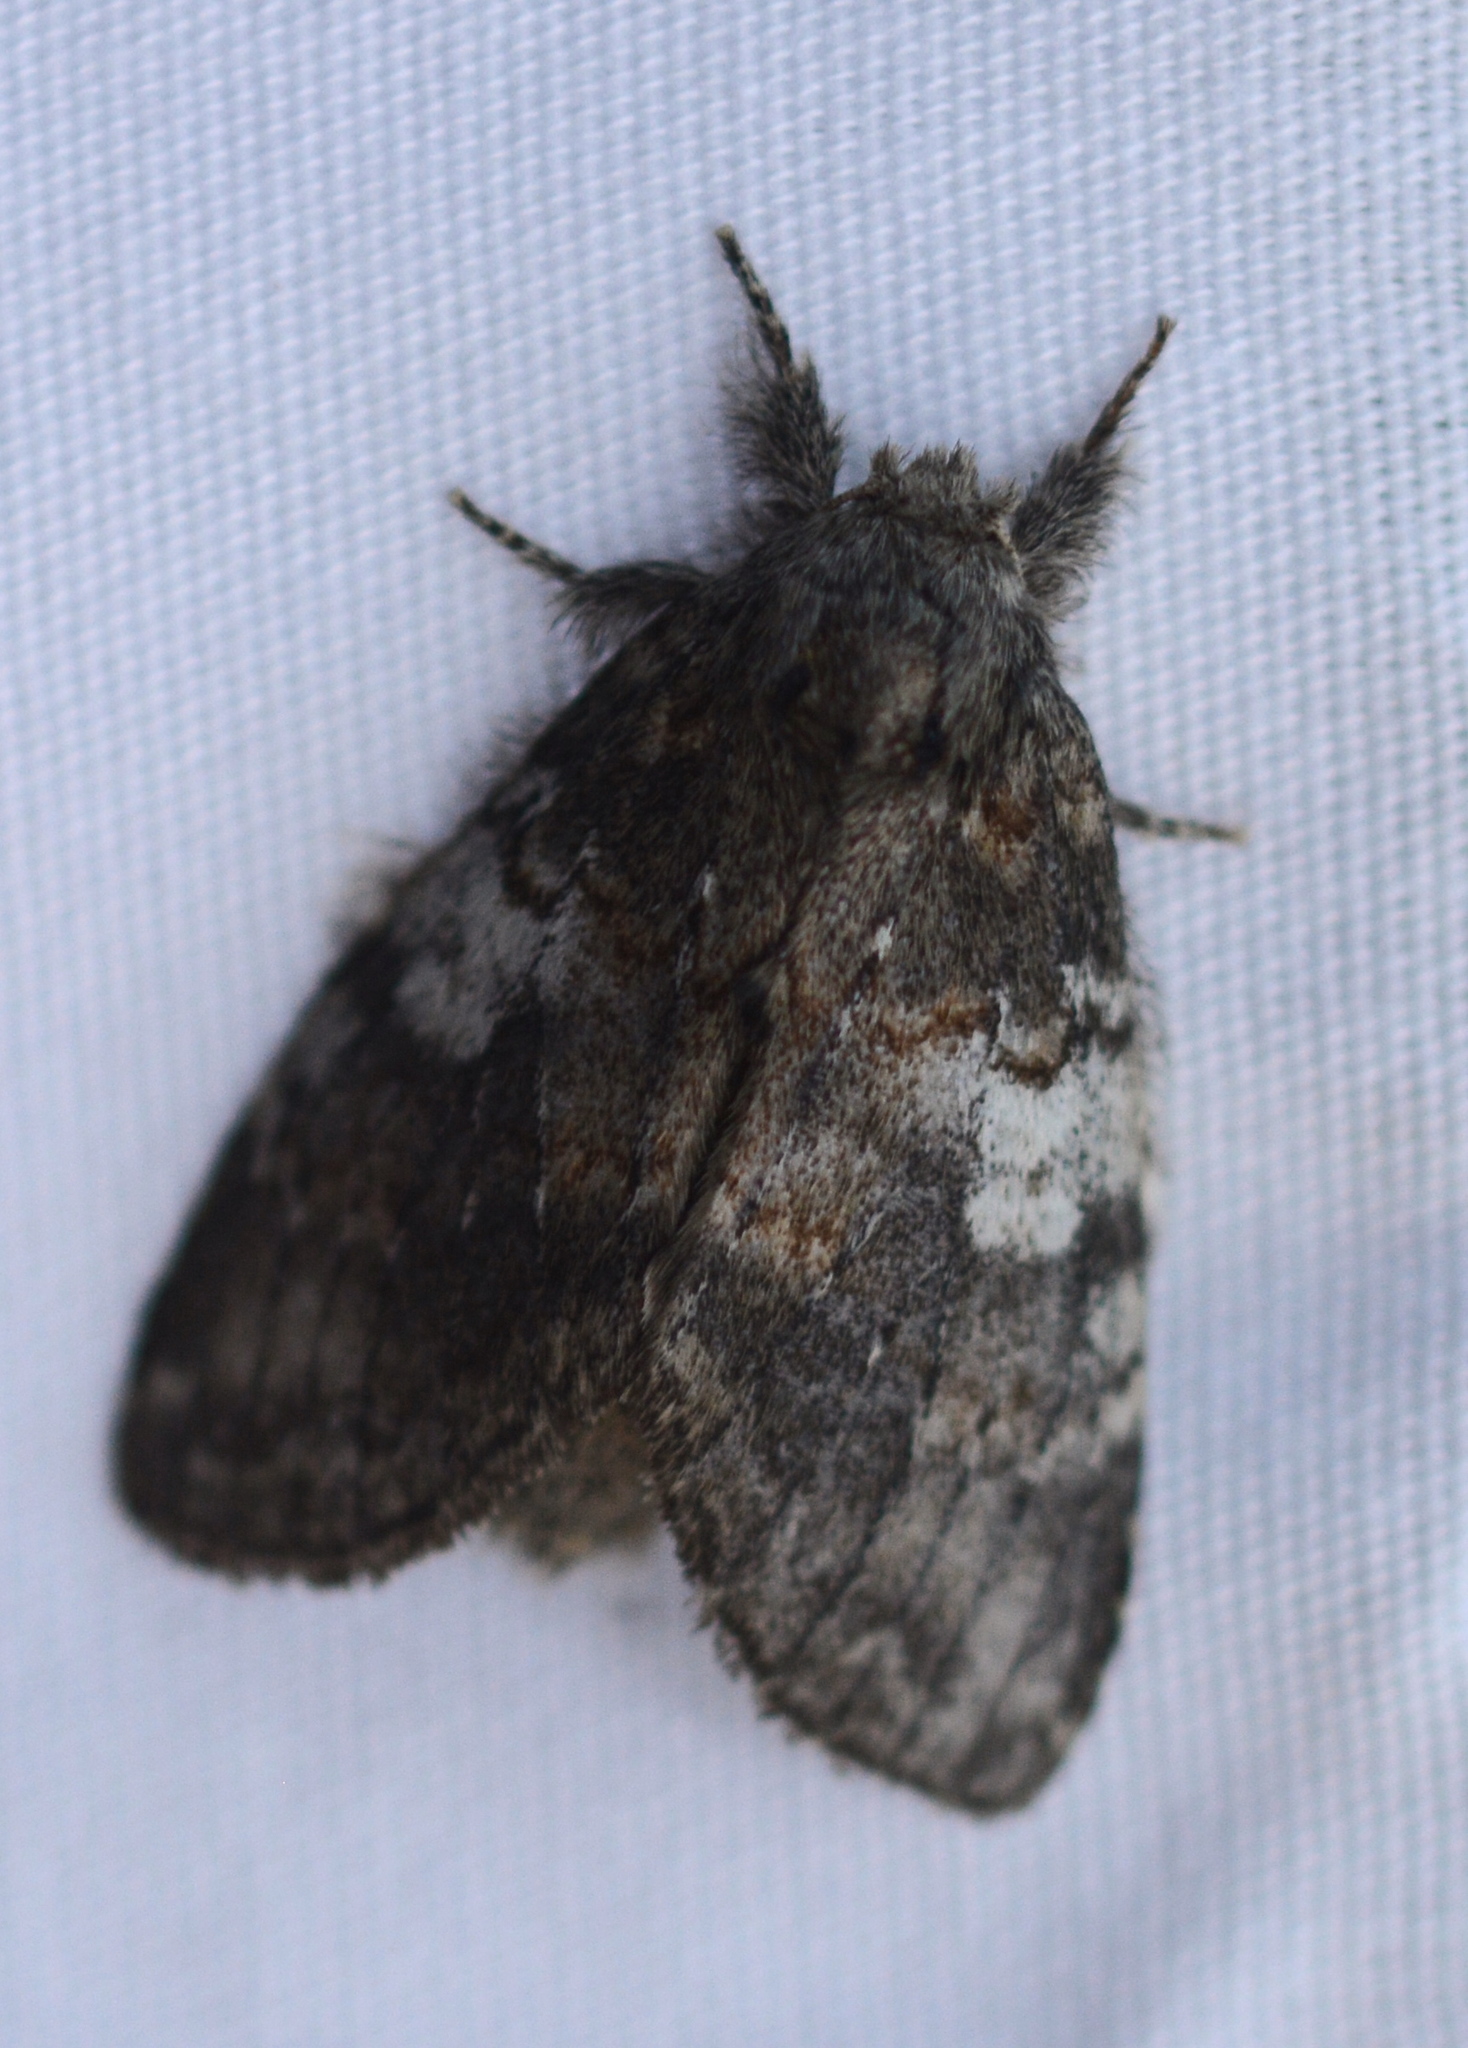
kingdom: Animalia
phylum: Arthropoda
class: Insecta
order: Lepidoptera
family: Notodontidae
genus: Peridea
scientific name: Peridea angulosa
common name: Angulose prominent
